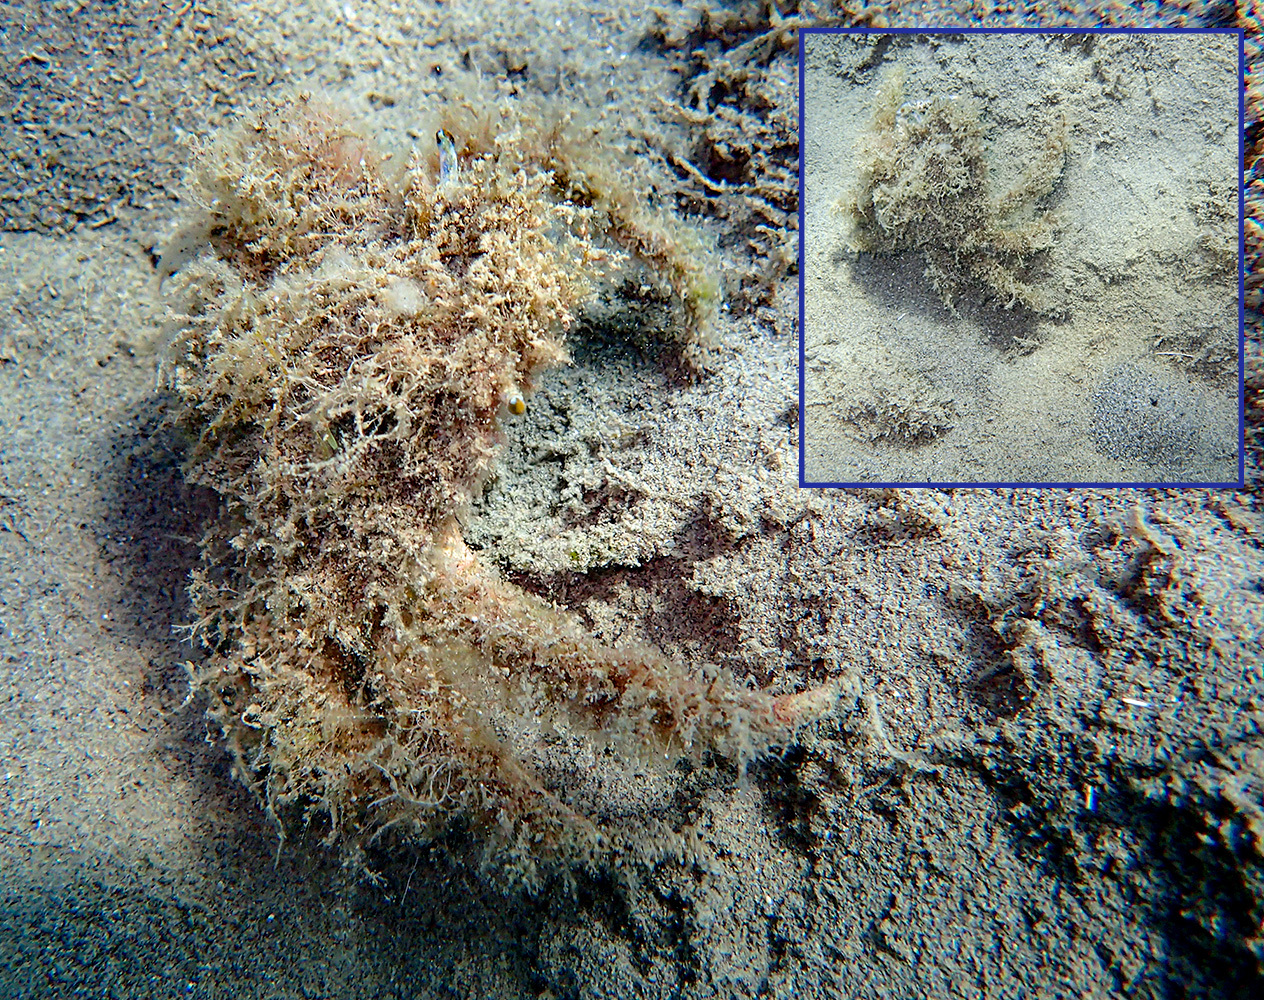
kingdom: Animalia
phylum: Arthropoda
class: Malacostraca
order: Decapoda
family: Majidae
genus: Maja
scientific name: Maja crispata
